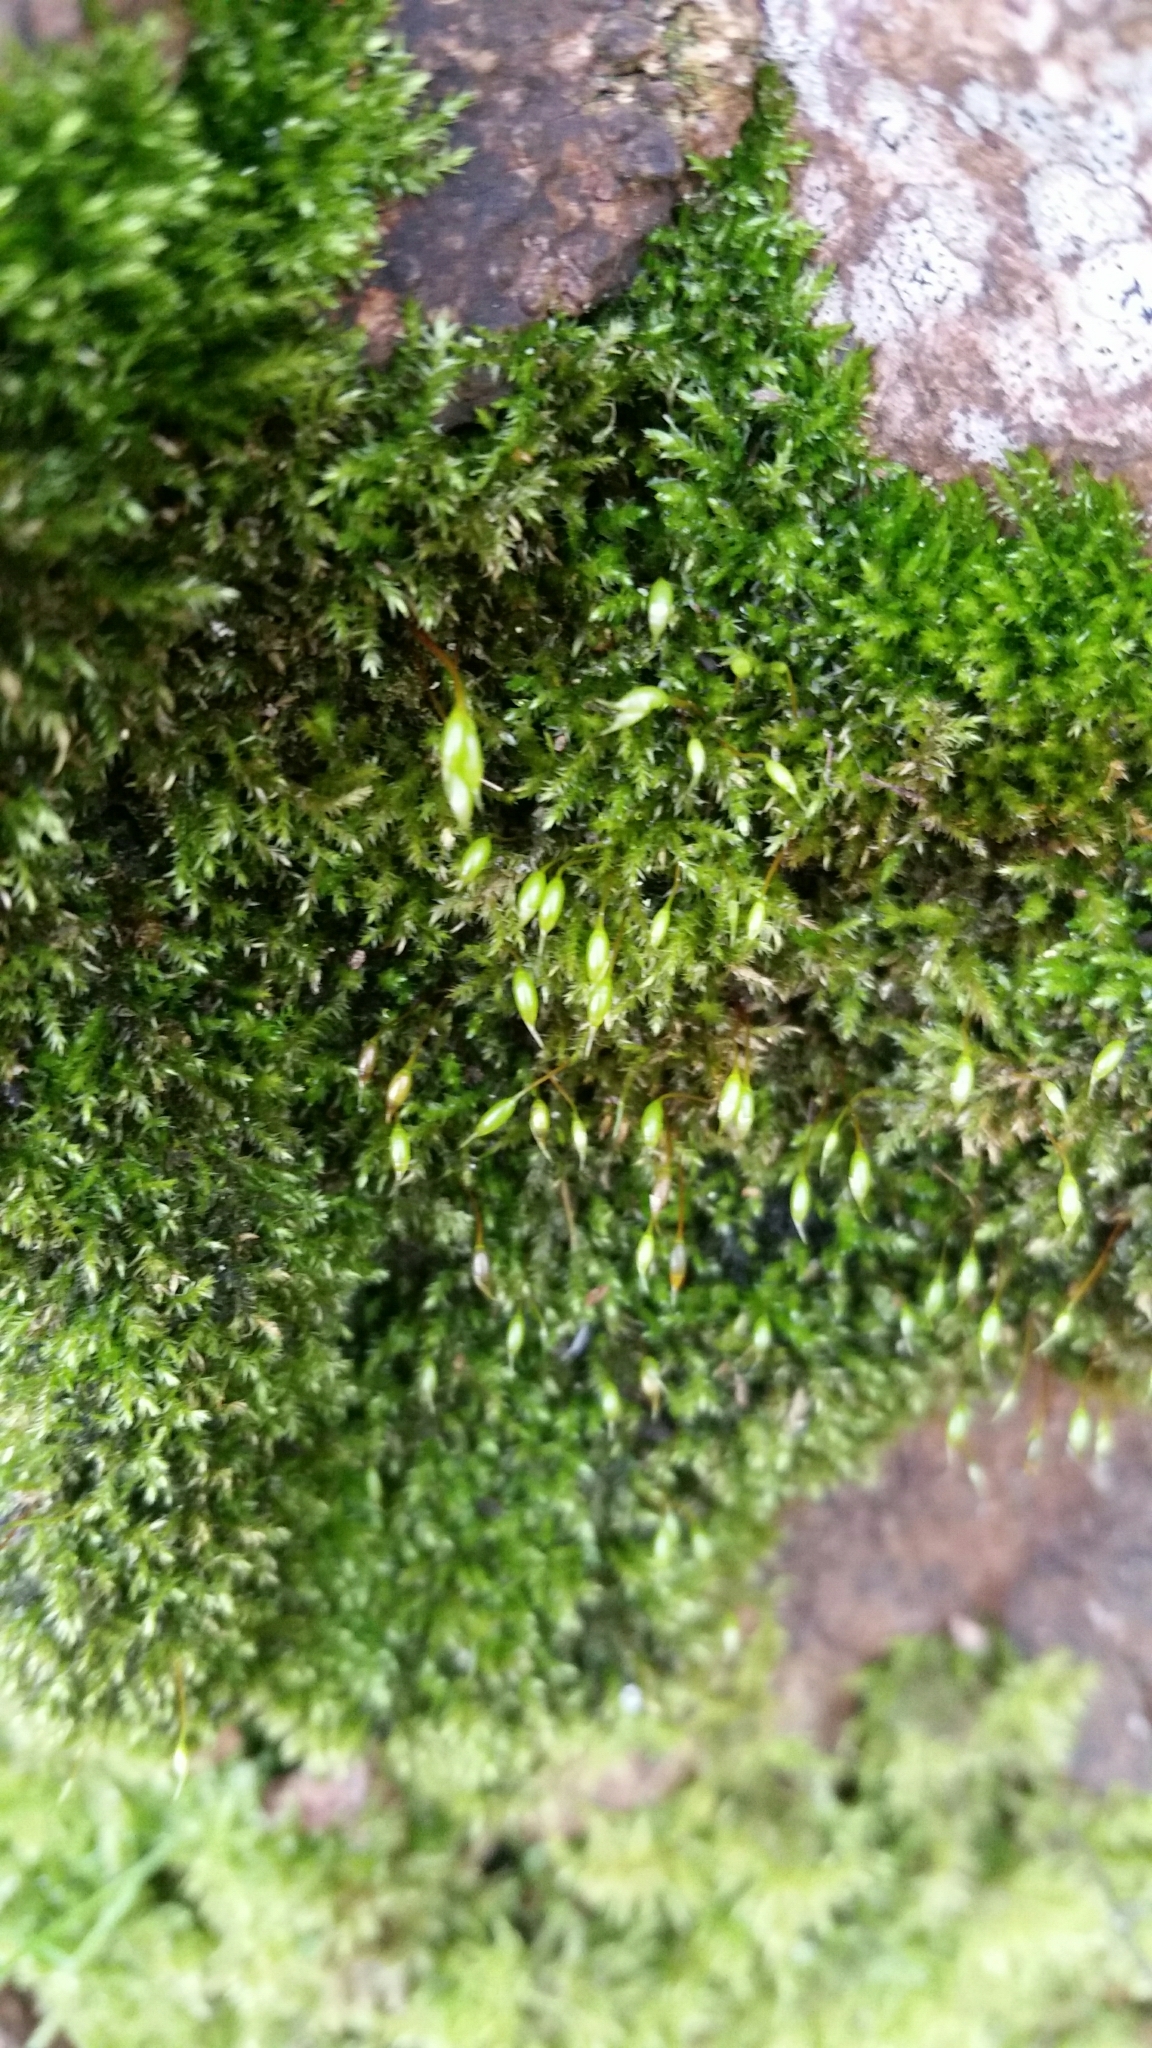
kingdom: Plantae
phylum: Bryophyta
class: Bryopsida
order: Hypnales
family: Brachytheciaceae
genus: Rhynchostegium
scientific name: Rhynchostegium confertum
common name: Clustered feather-moss
